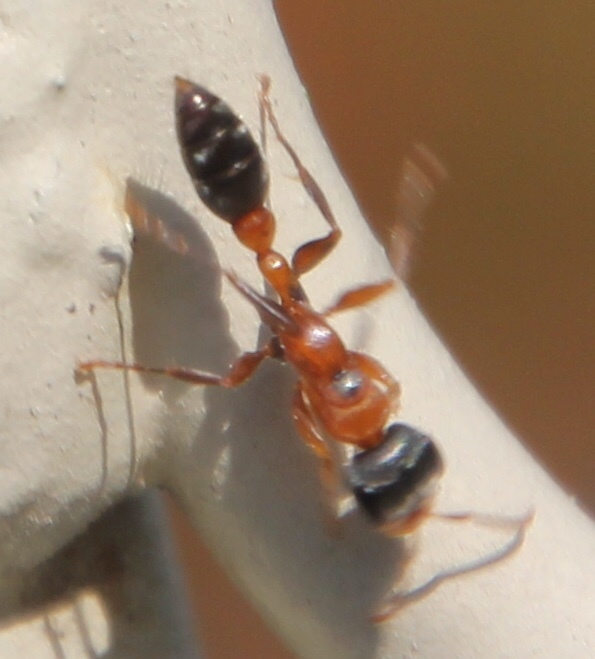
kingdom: Animalia
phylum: Arthropoda
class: Insecta
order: Hymenoptera
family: Formicidae
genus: Pseudomyrmex
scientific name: Pseudomyrmex gracilis
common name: Graceful twig ant
